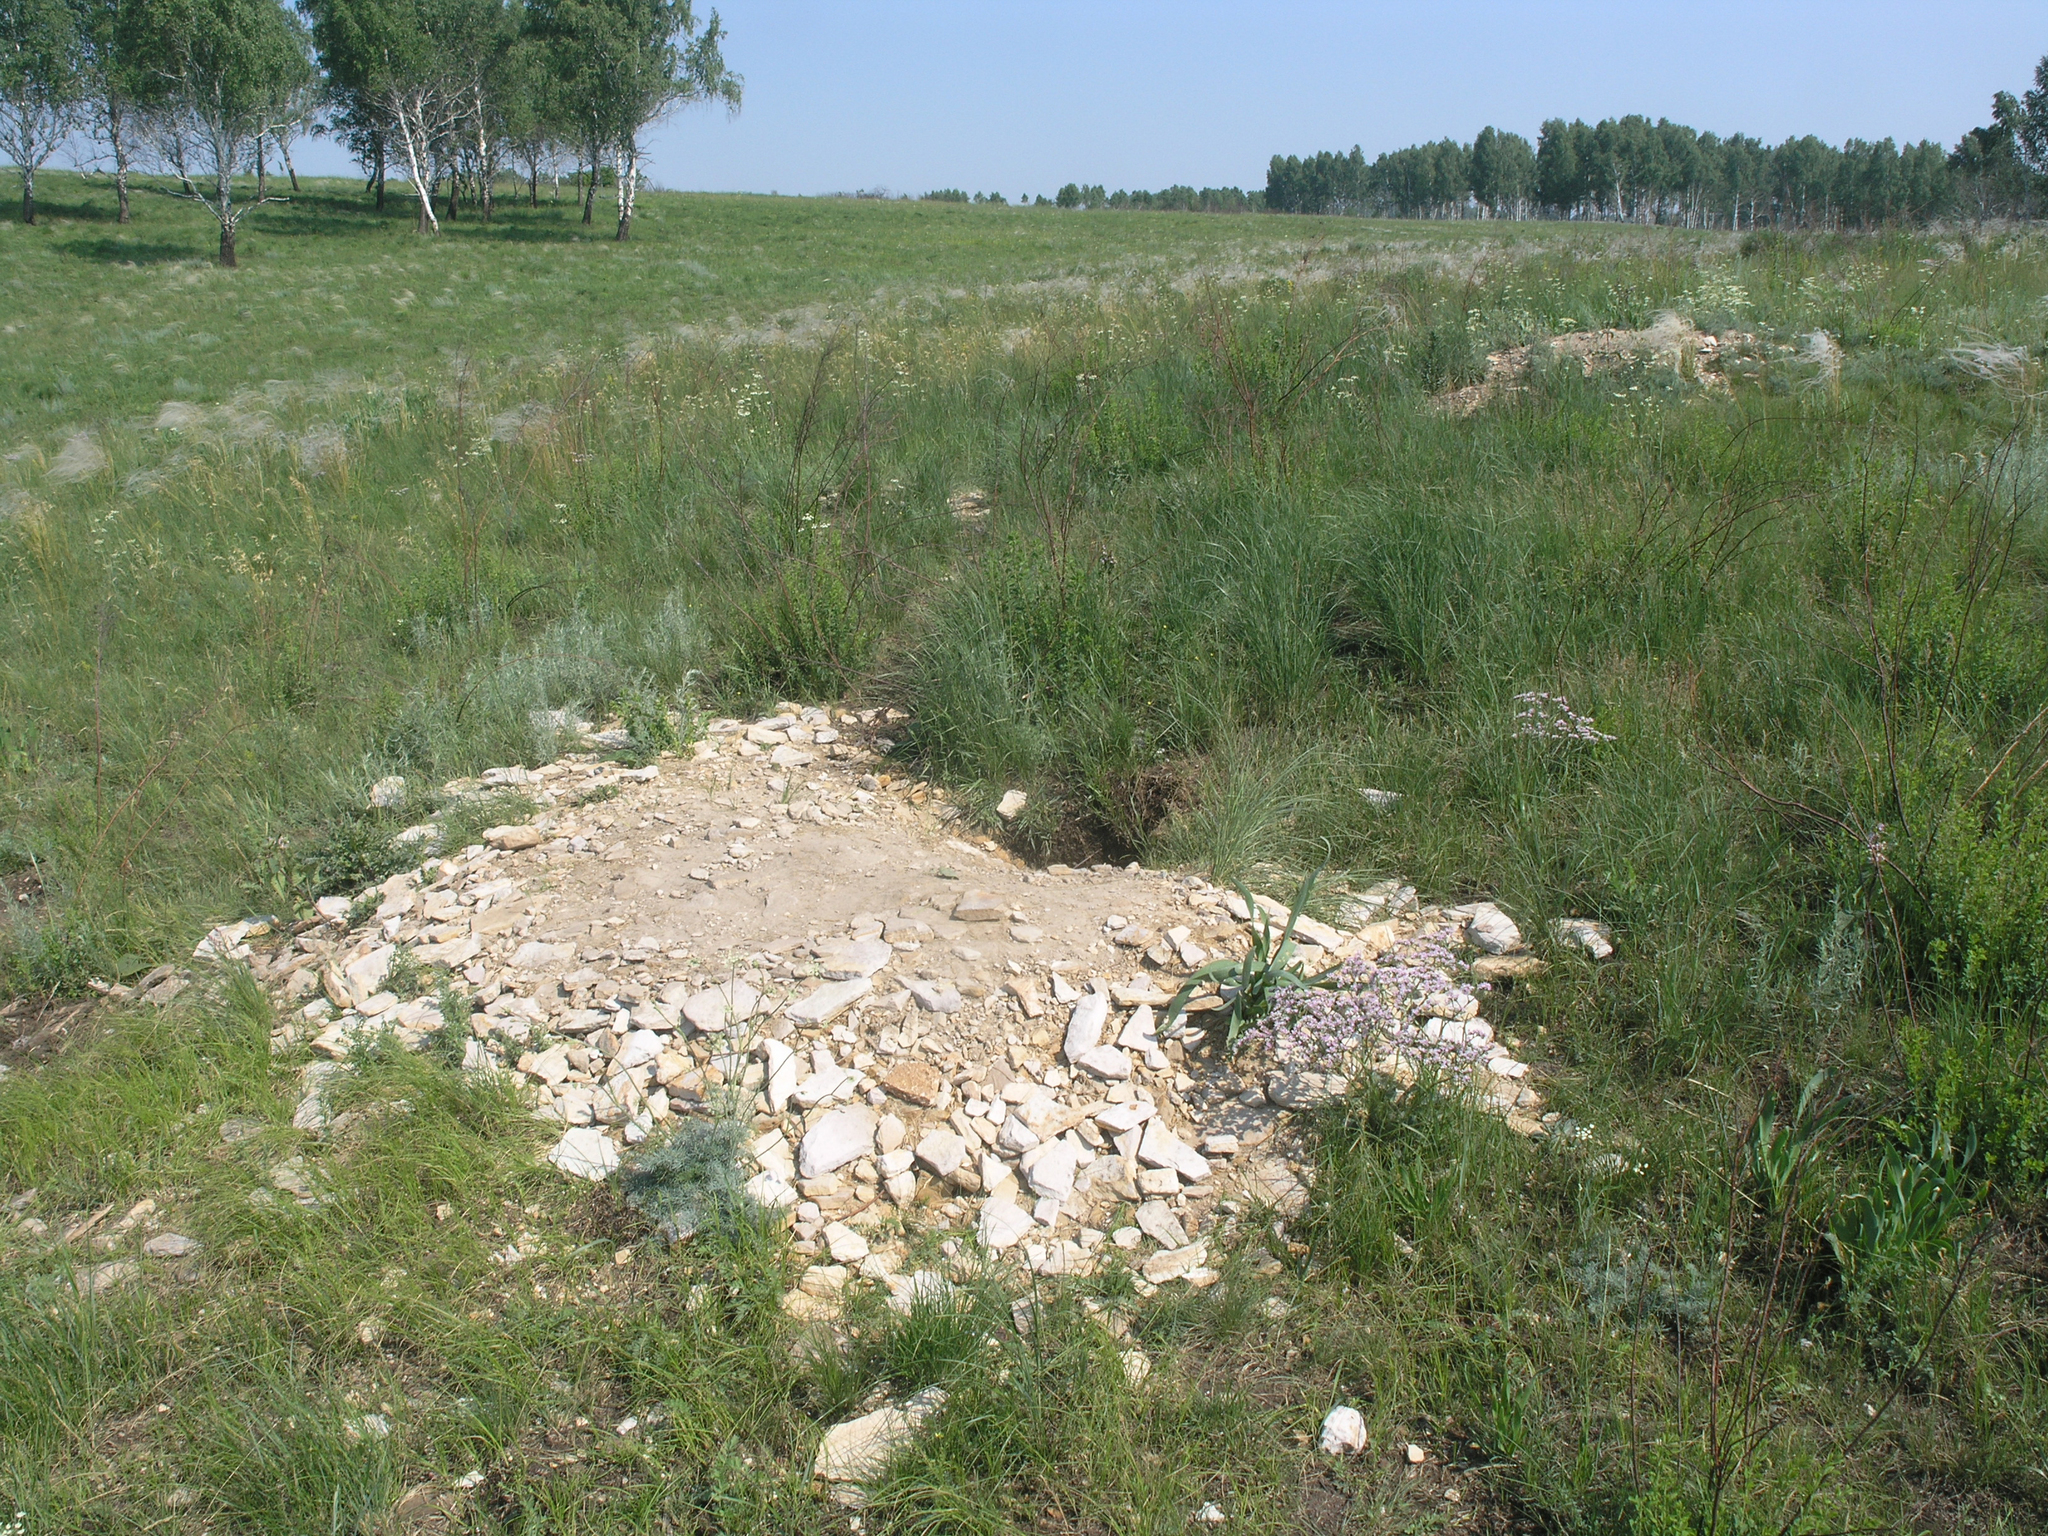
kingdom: Animalia
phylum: Chordata
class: Mammalia
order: Rodentia
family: Sciuridae
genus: Marmota
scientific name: Marmota kastschenkoi
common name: Forest steppe marmot
